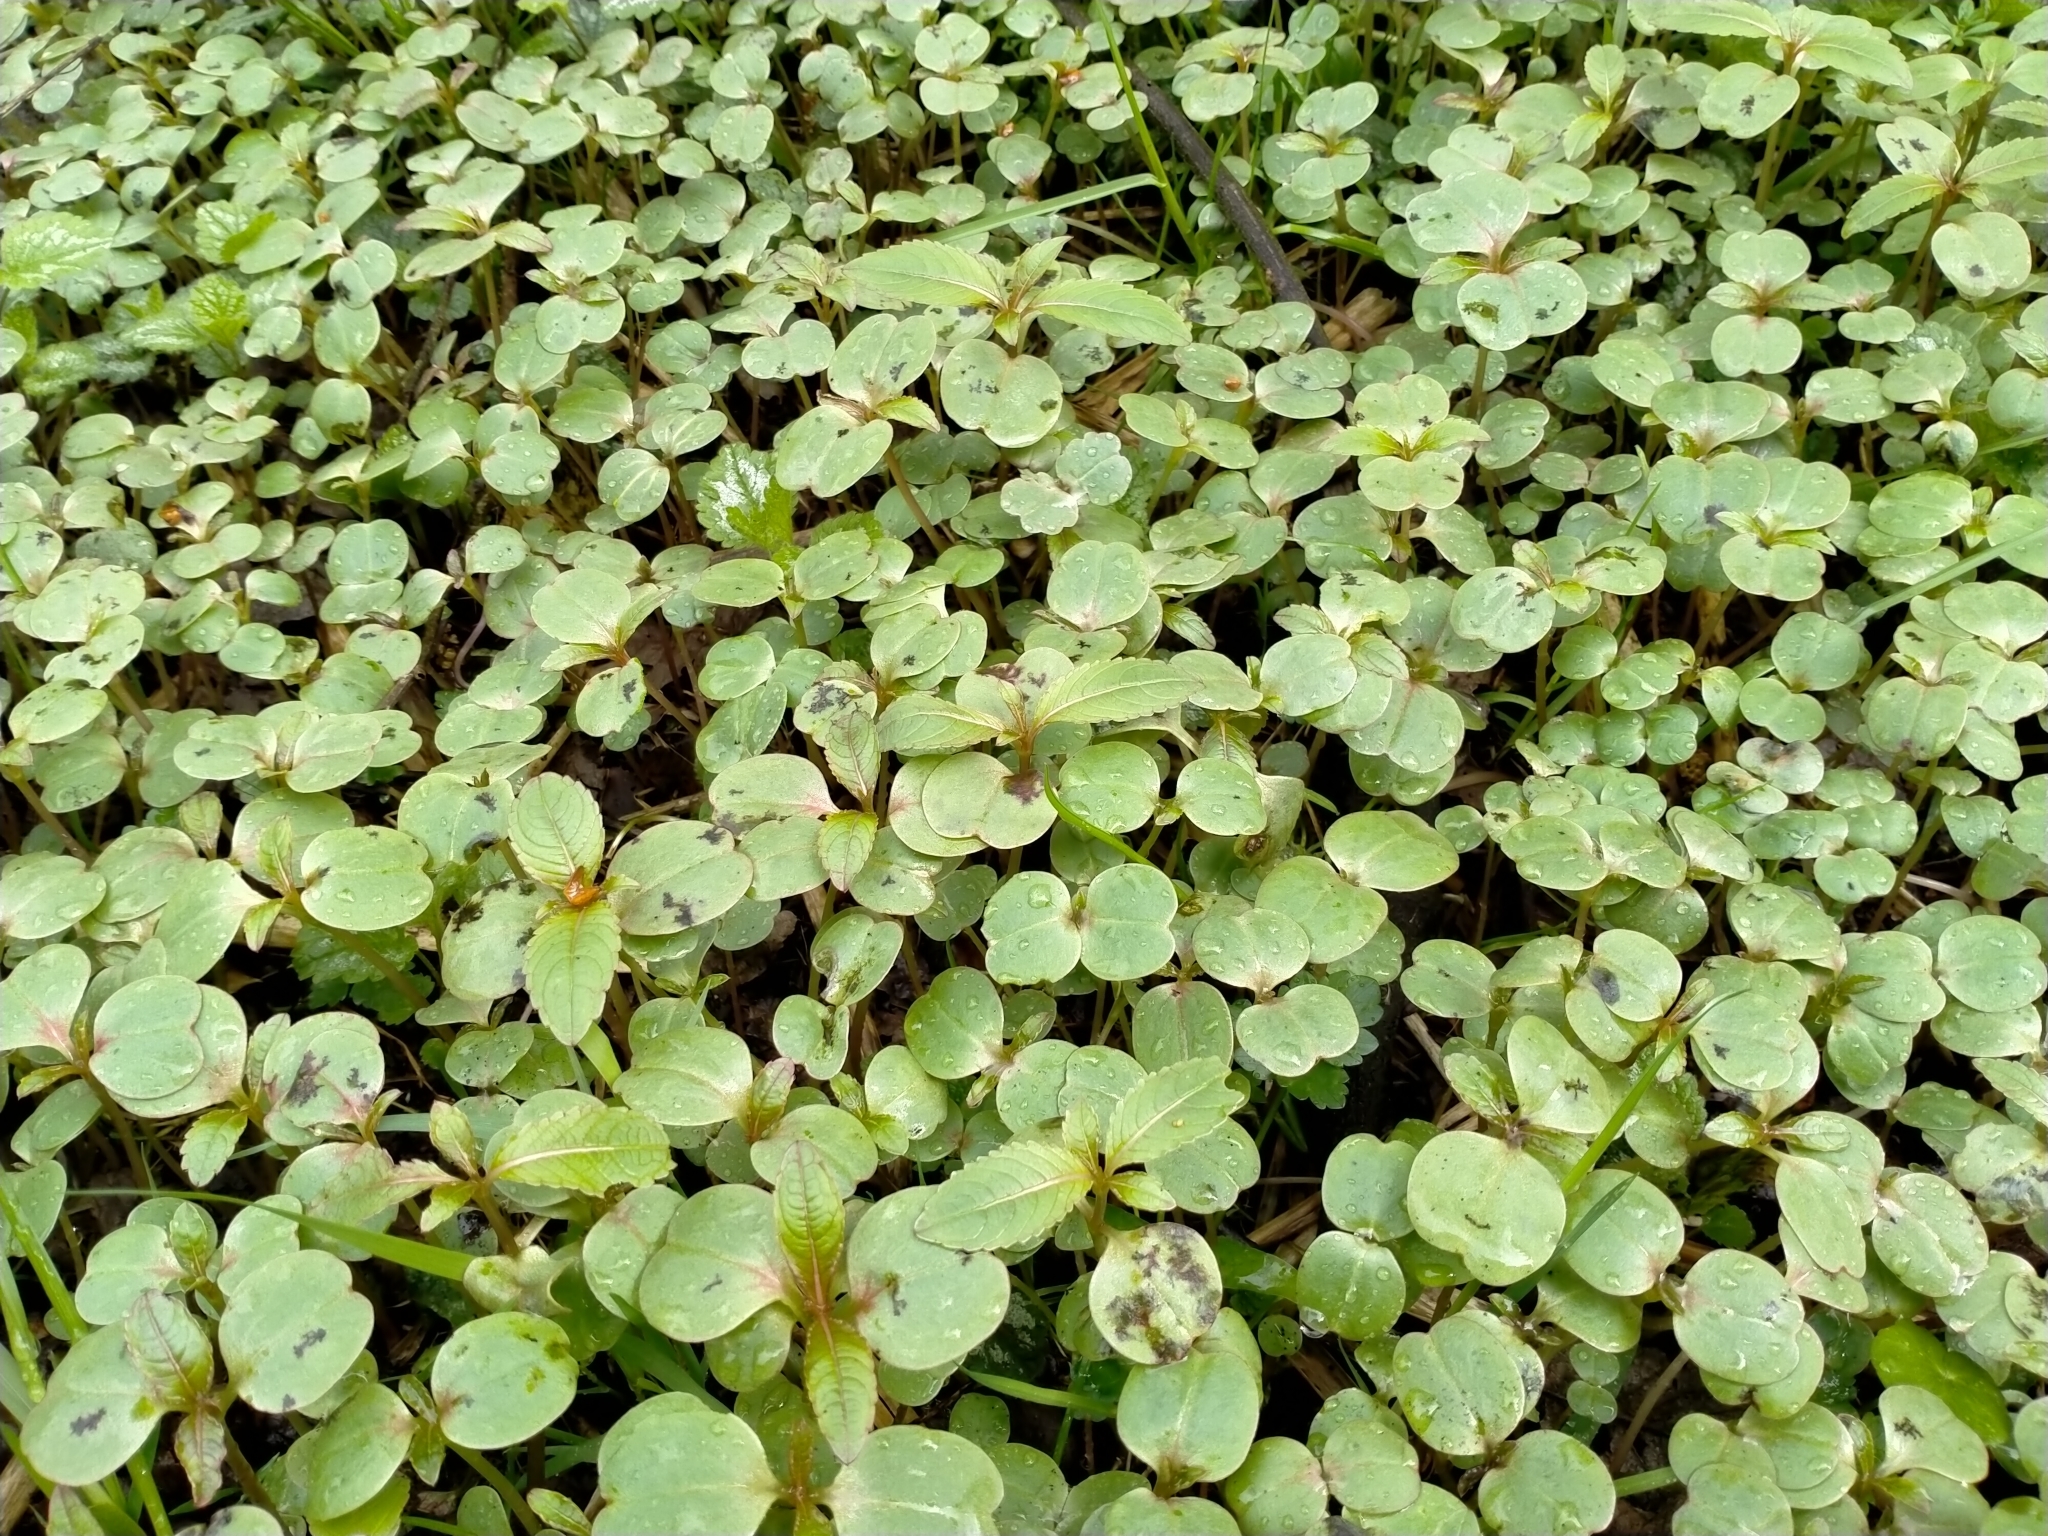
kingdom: Plantae
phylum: Tracheophyta
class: Magnoliopsida
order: Ericales
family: Balsaminaceae
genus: Impatiens
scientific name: Impatiens glandulifera
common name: Himalayan balsam
